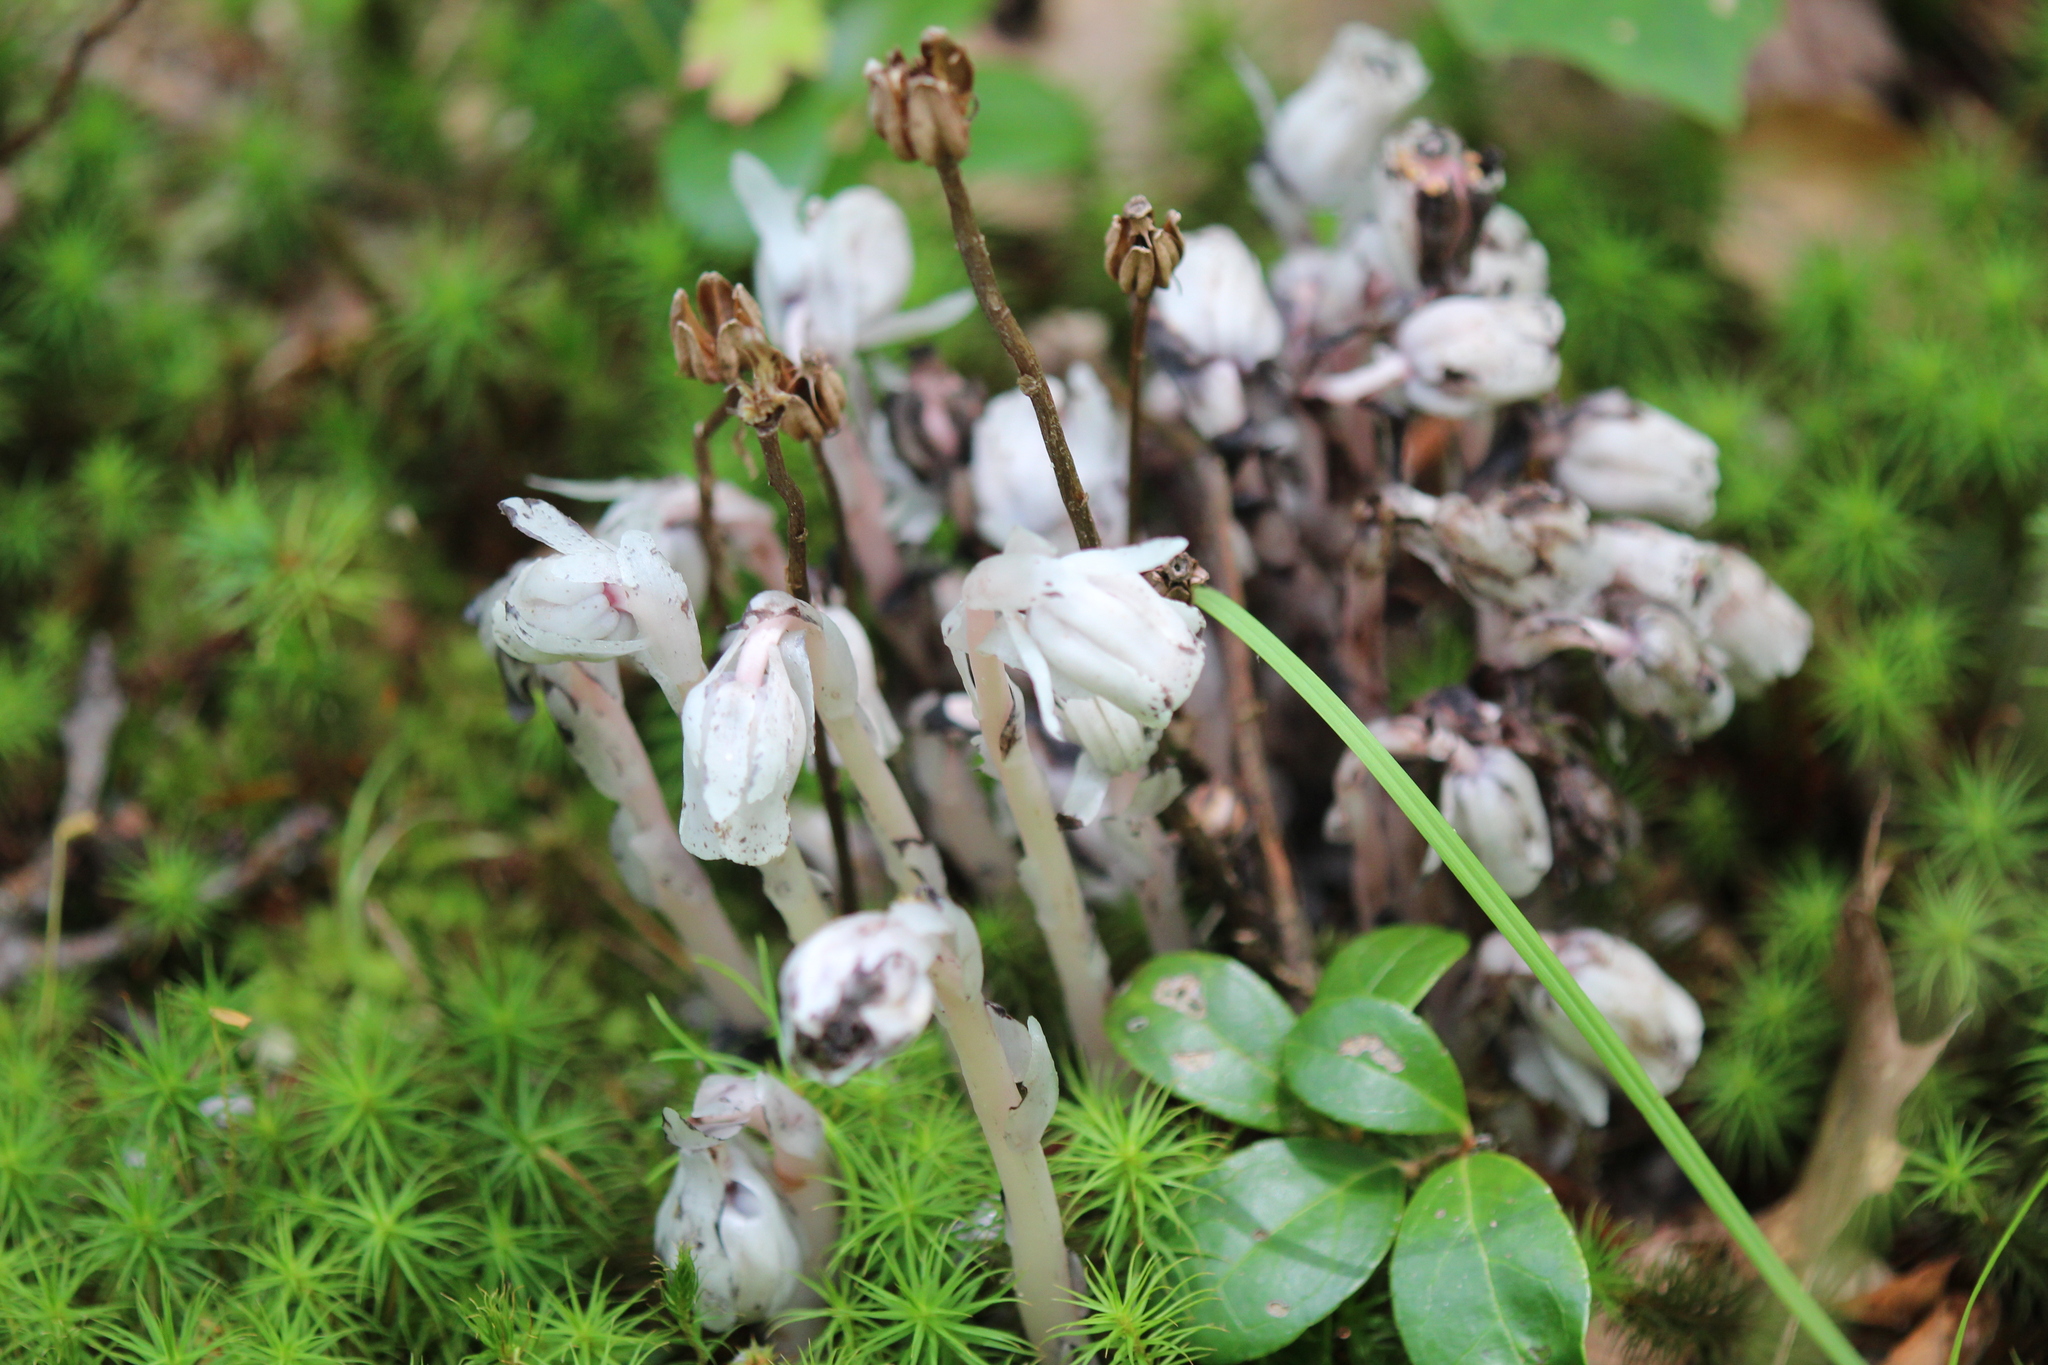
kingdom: Plantae
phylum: Tracheophyta
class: Magnoliopsida
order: Ericales
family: Ericaceae
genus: Monotropa
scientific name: Monotropa uniflora
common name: Convulsion root
